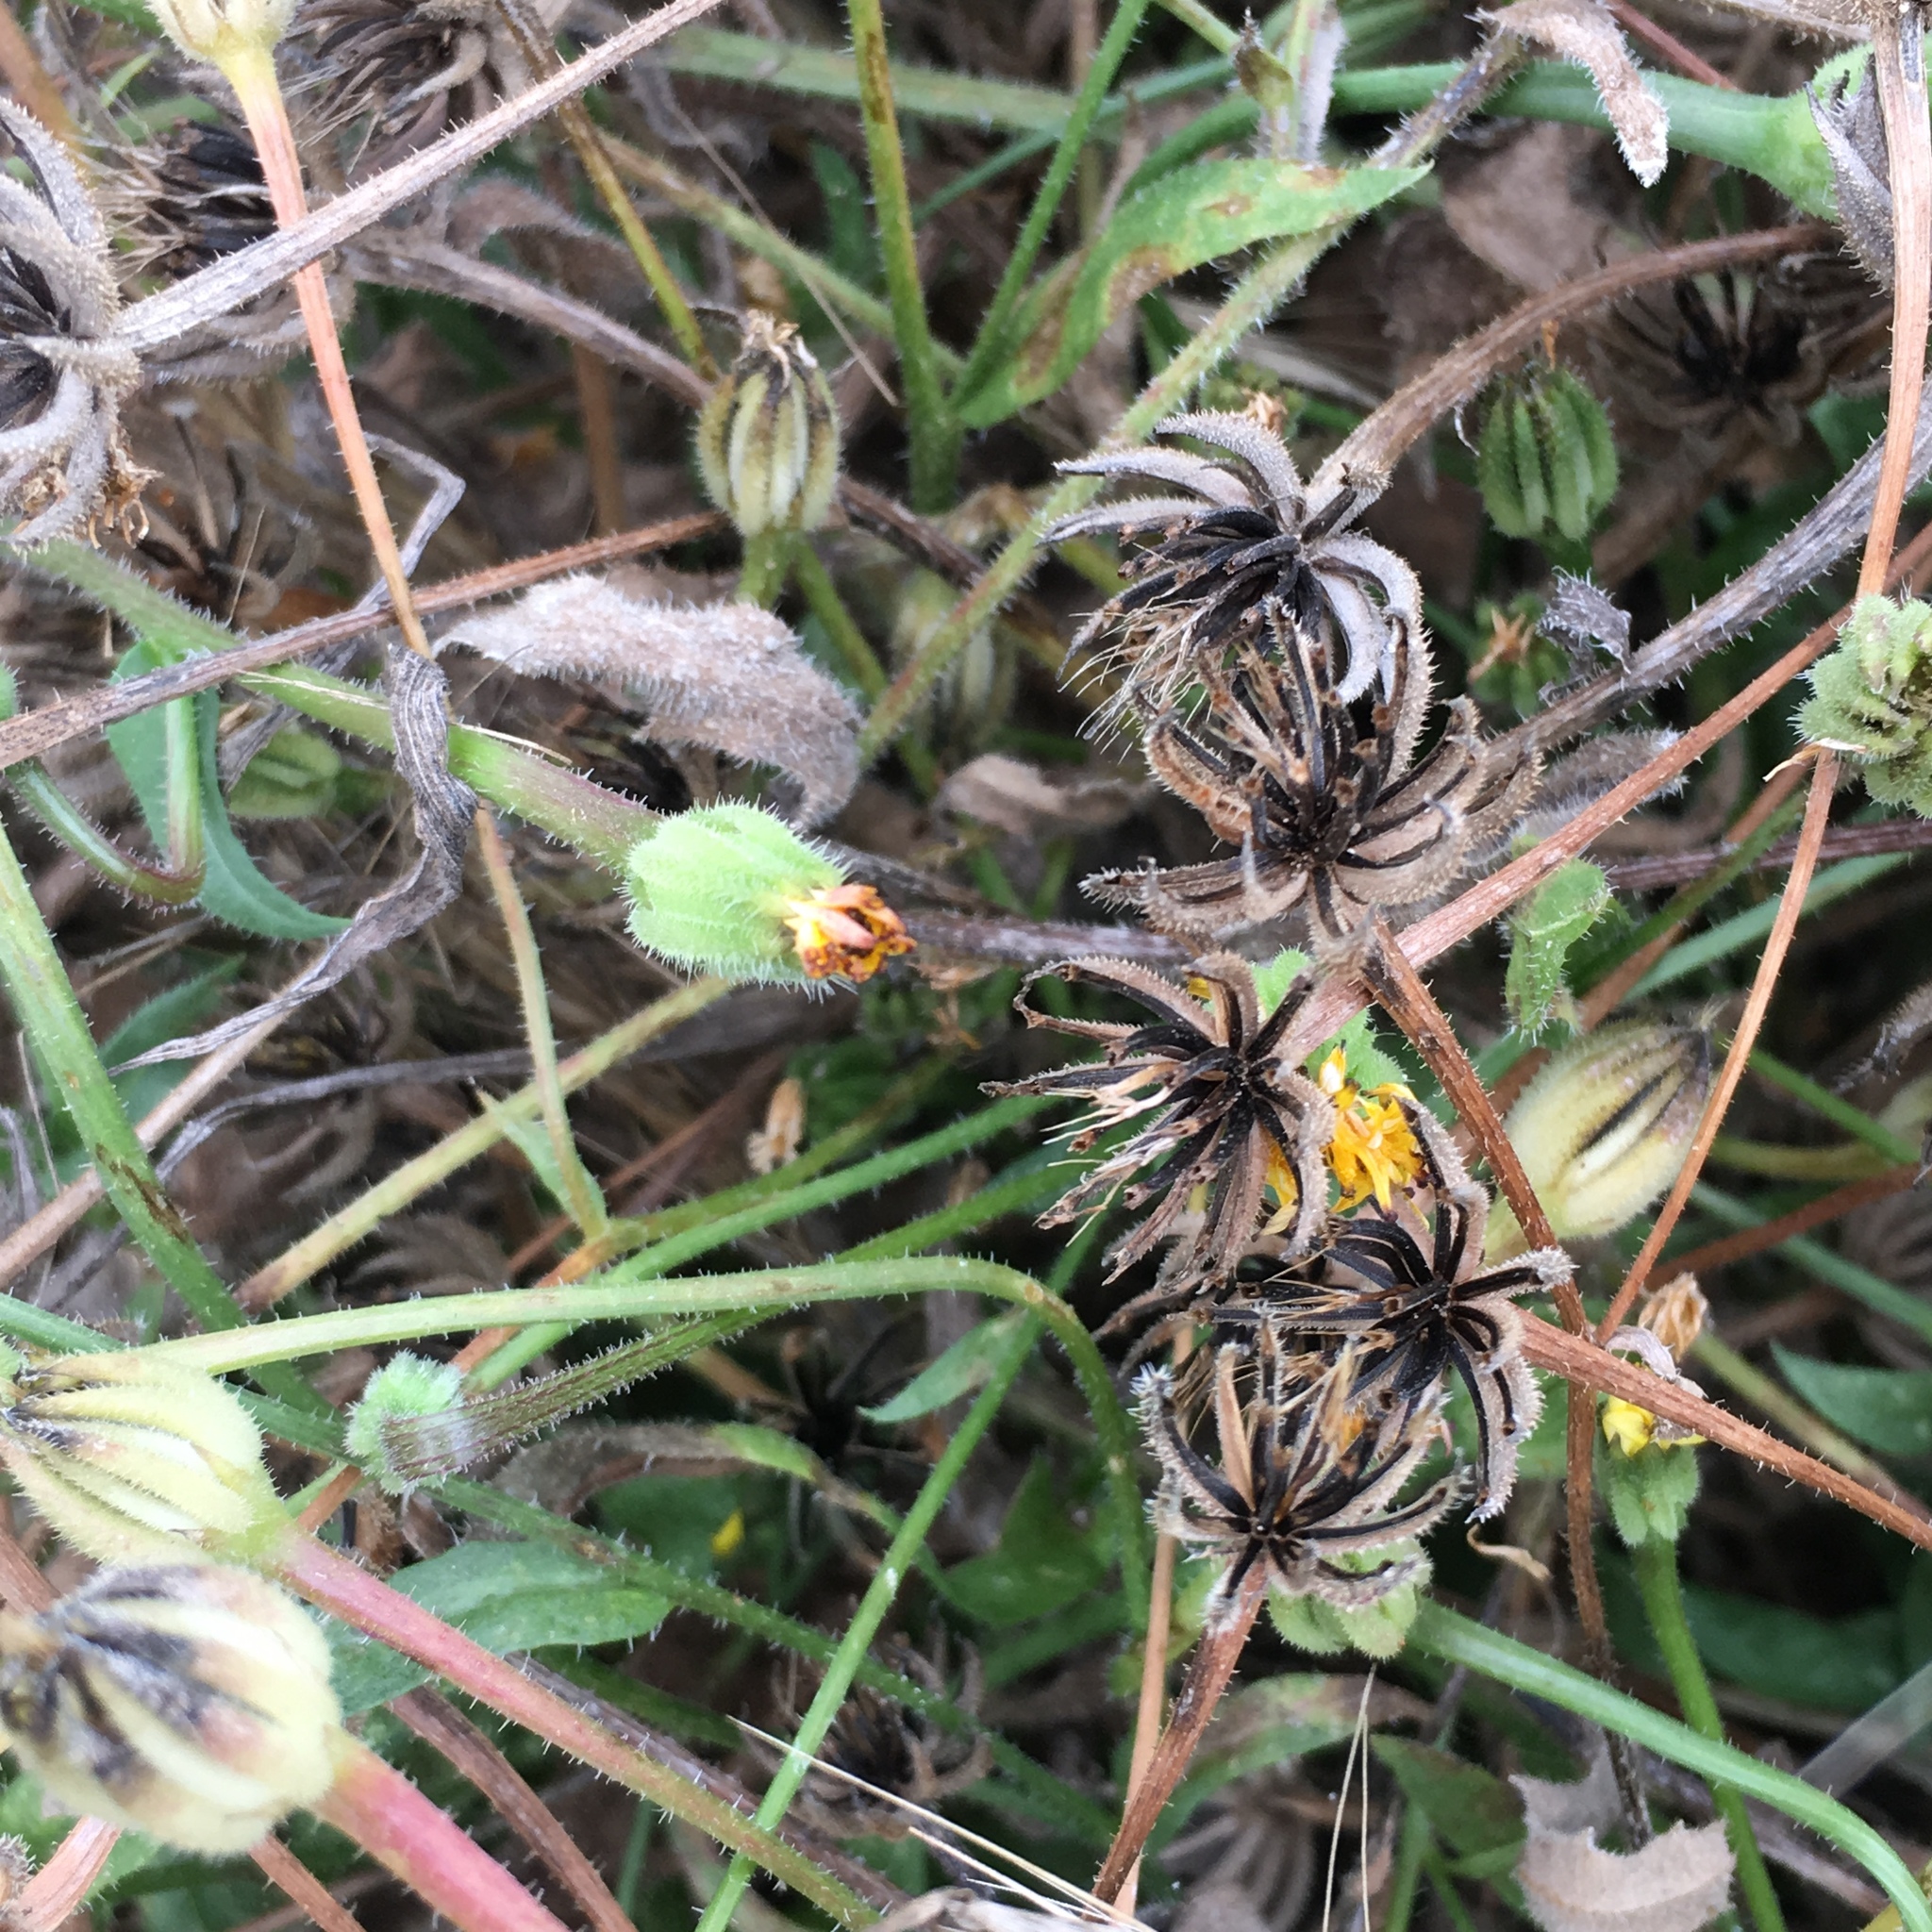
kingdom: Plantae
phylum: Tracheophyta
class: Magnoliopsida
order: Asterales
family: Asteraceae
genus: Hedypnois
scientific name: Hedypnois rhagadioloides
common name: Cretan weed
